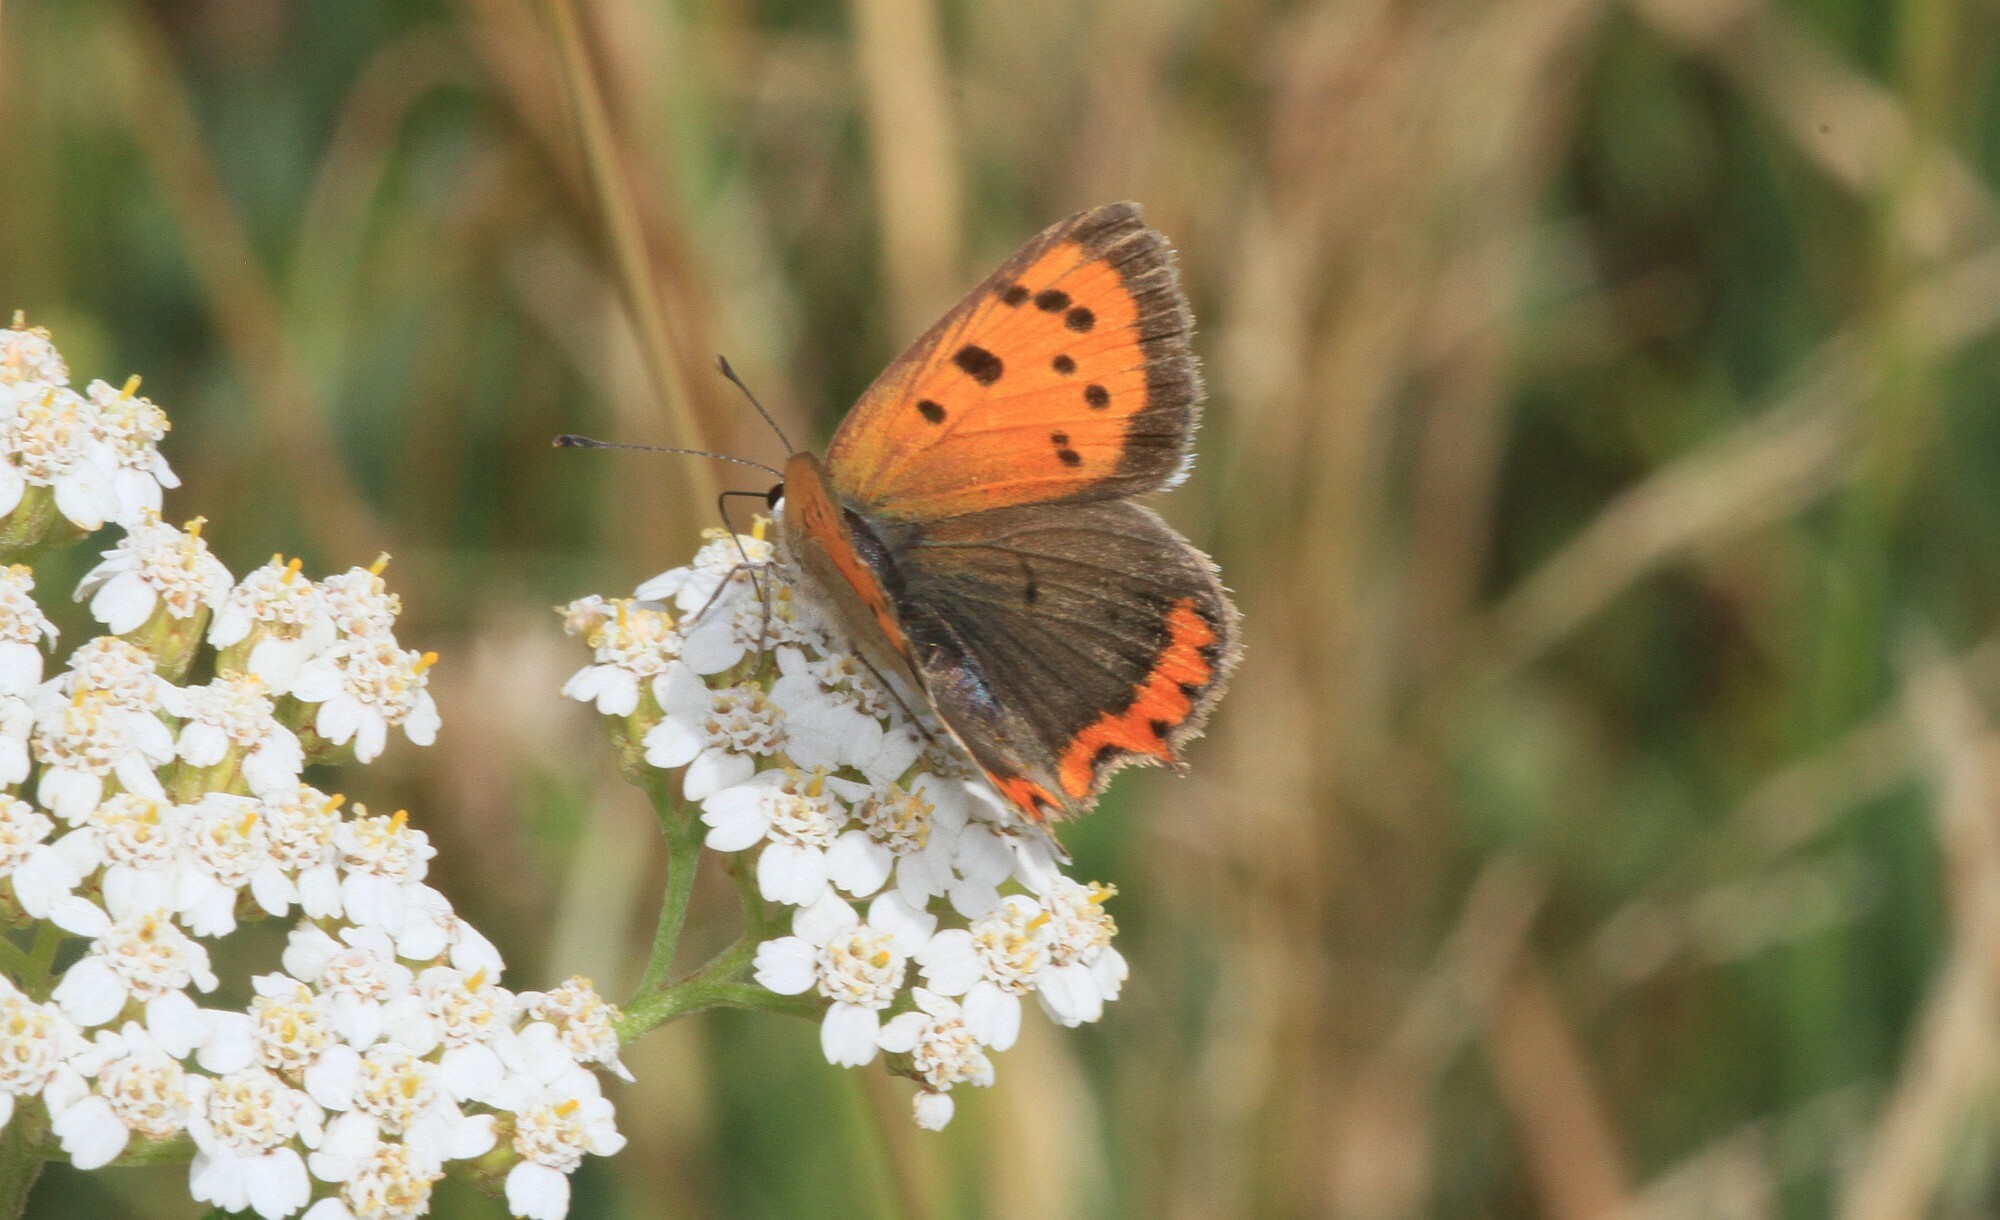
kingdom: Animalia
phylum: Arthropoda
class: Insecta
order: Lepidoptera
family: Lycaenidae
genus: Lycaena
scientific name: Lycaena phlaeas
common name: Small copper
